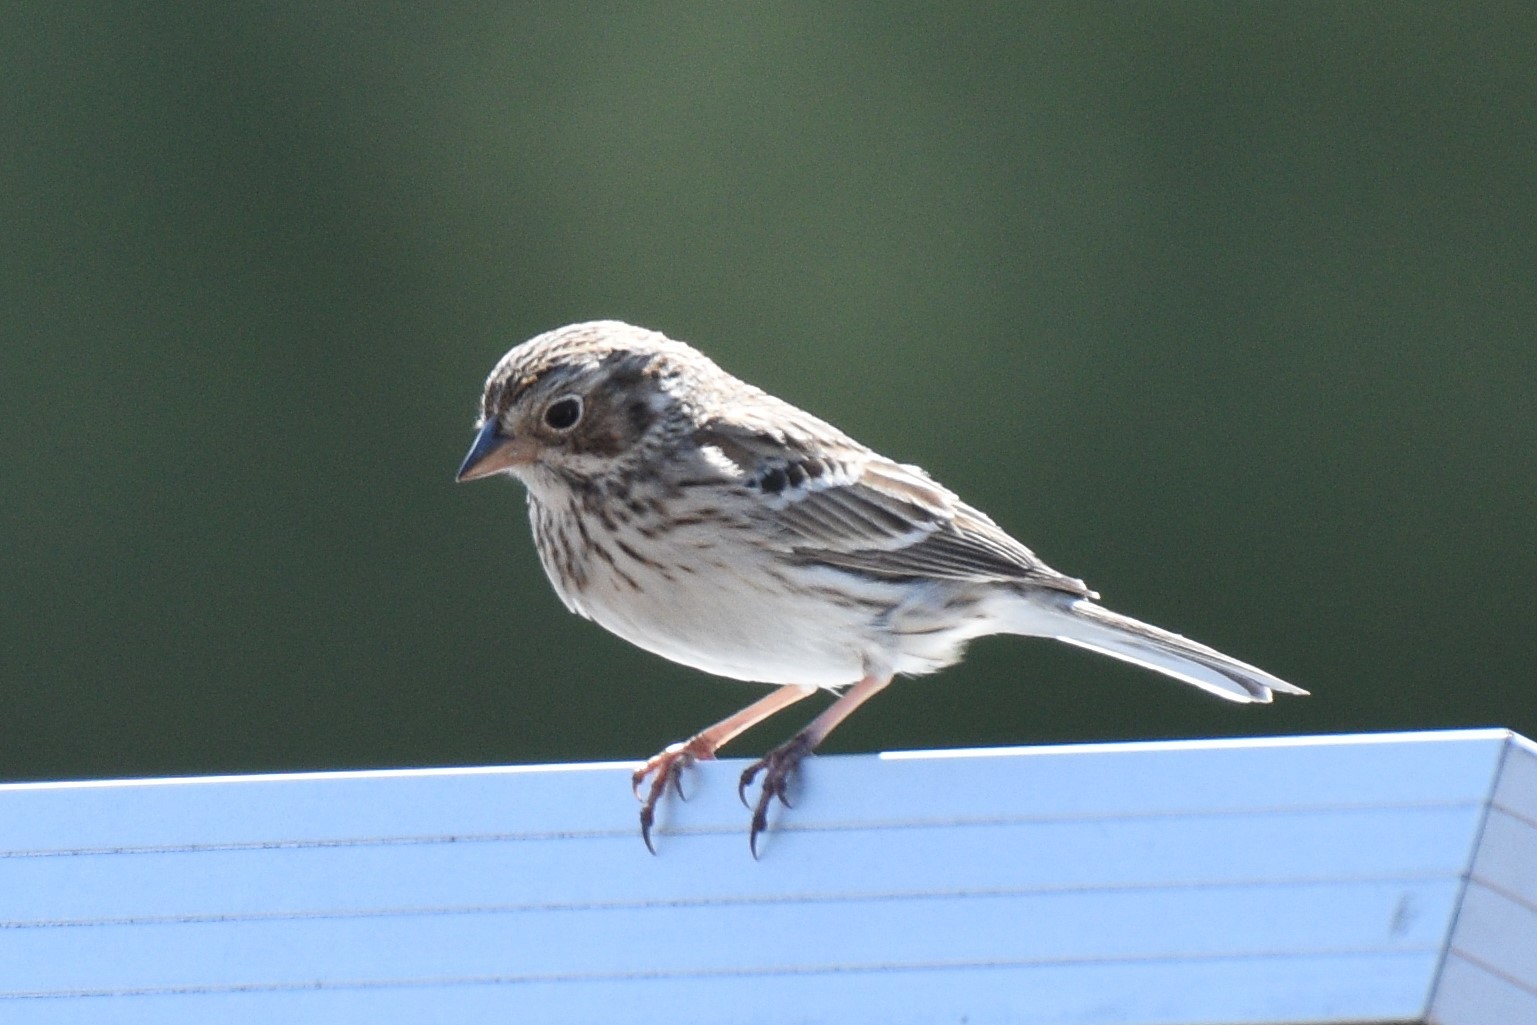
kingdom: Animalia
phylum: Chordata
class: Aves
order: Passeriformes
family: Passerellidae
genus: Pooecetes
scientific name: Pooecetes gramineus
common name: Vesper sparrow
